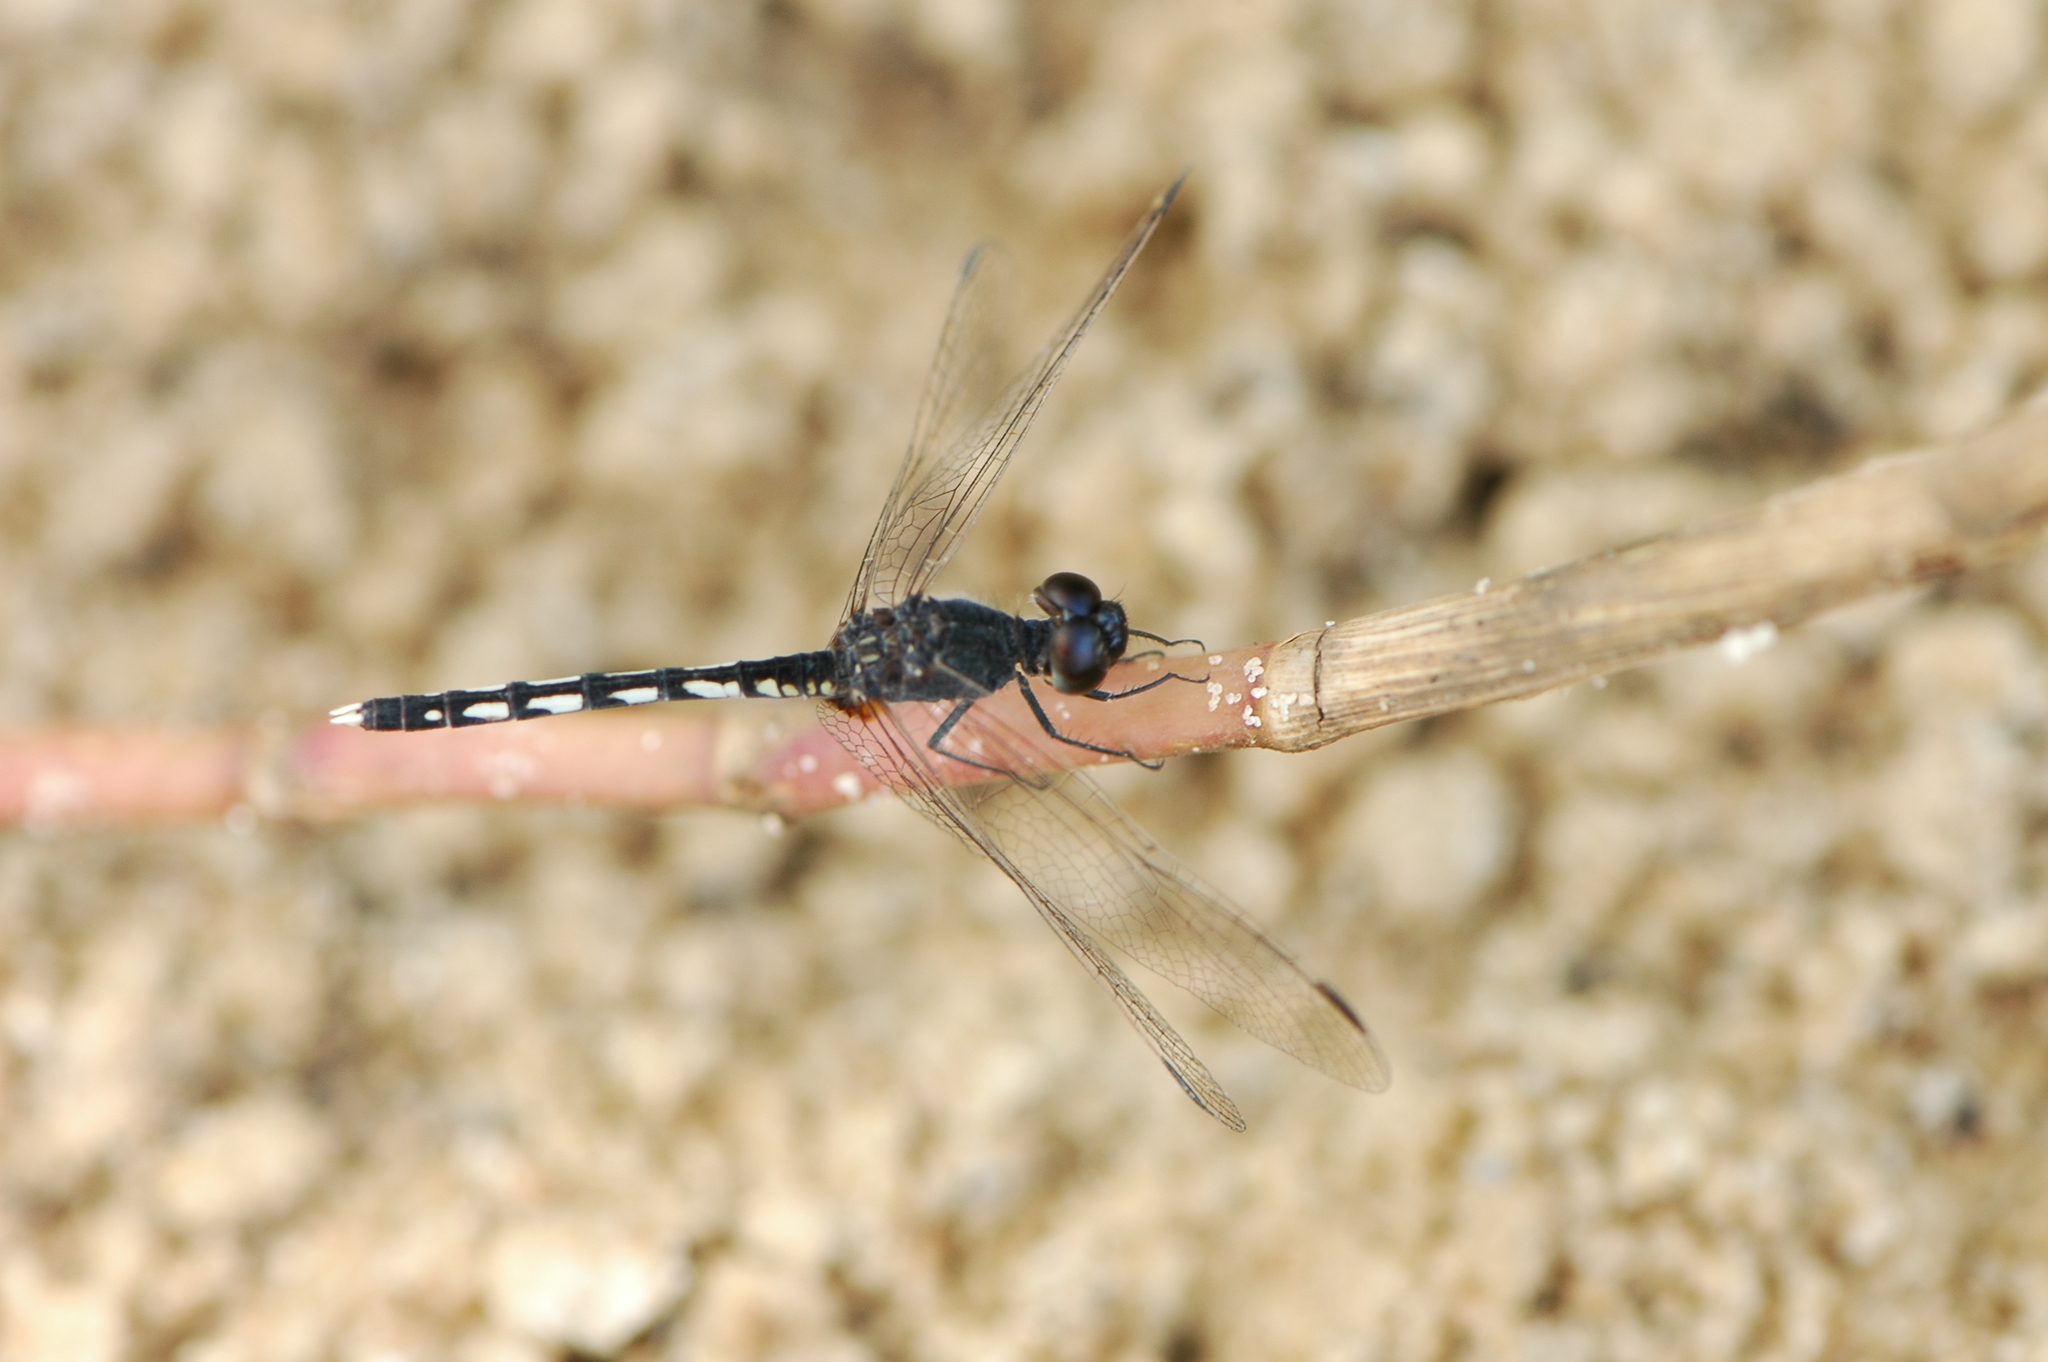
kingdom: Animalia
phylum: Arthropoda
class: Insecta
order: Odonata
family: Libellulidae
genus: Diplacodes
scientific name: Diplacodes lefebvrii
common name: Black percher
